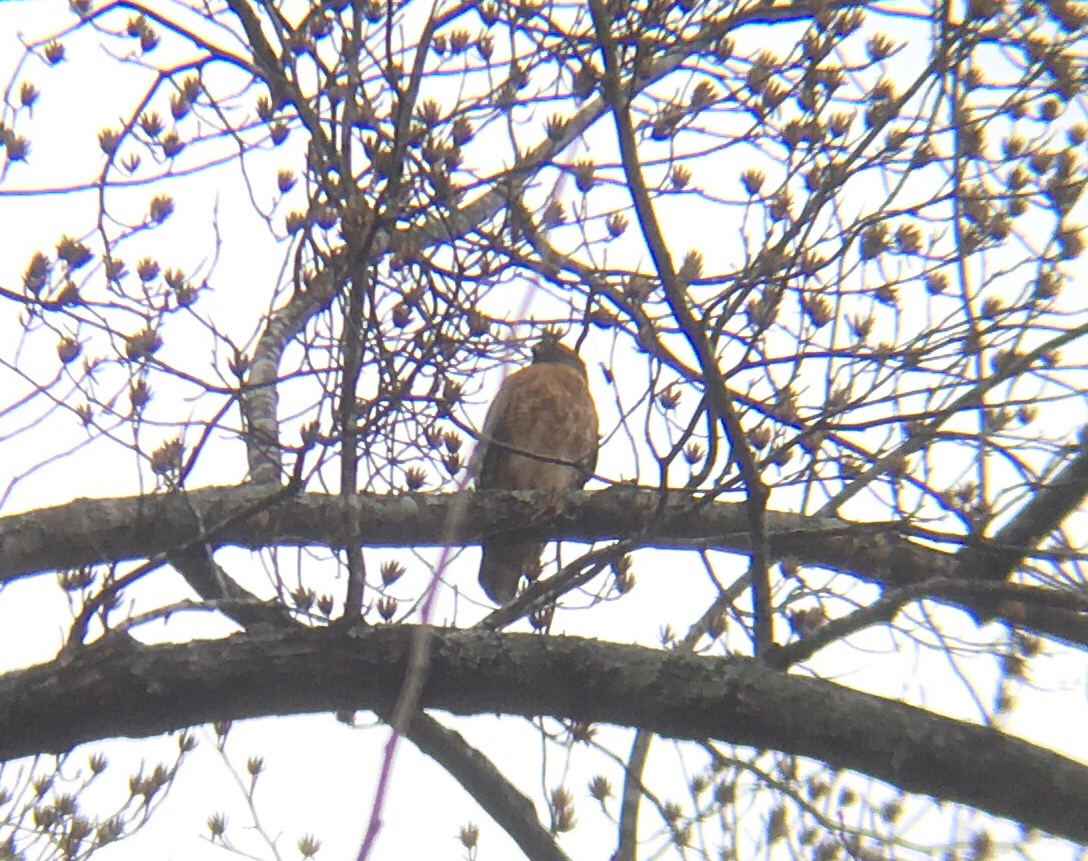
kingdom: Animalia
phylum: Chordata
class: Aves
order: Accipitriformes
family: Accipitridae
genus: Buteo
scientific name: Buteo lineatus
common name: Red-shouldered hawk
